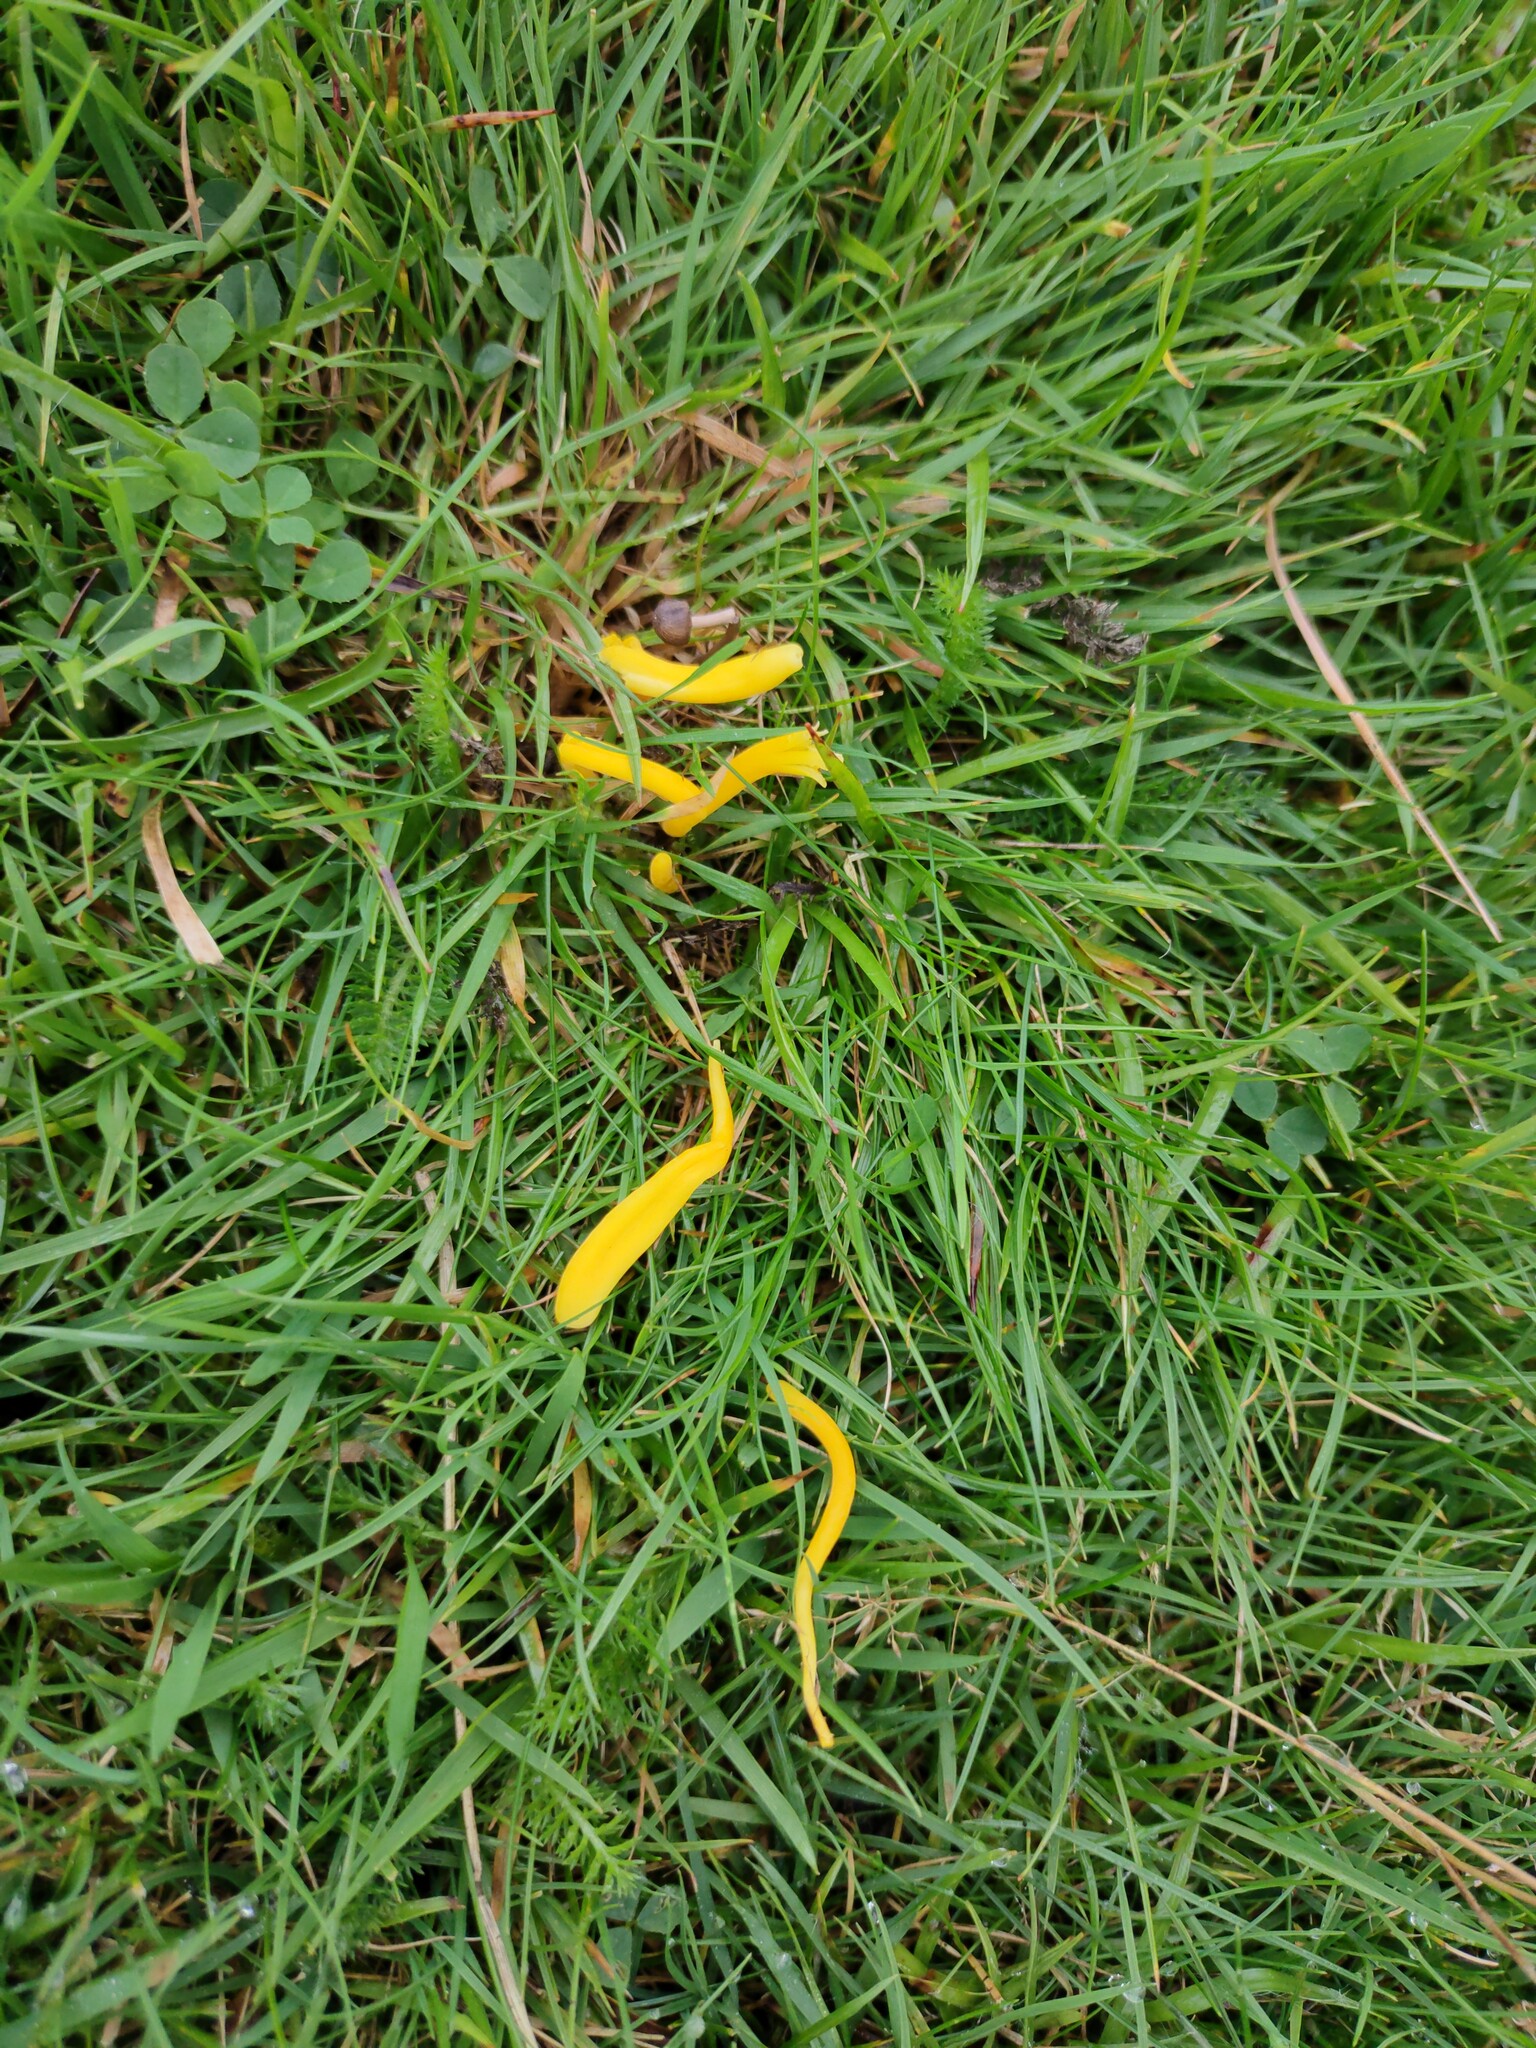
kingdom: Fungi
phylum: Basidiomycota
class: Agaricomycetes
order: Agaricales
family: Clavariaceae
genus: Clavulinopsis
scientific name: Clavulinopsis helvola
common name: Yellow club
